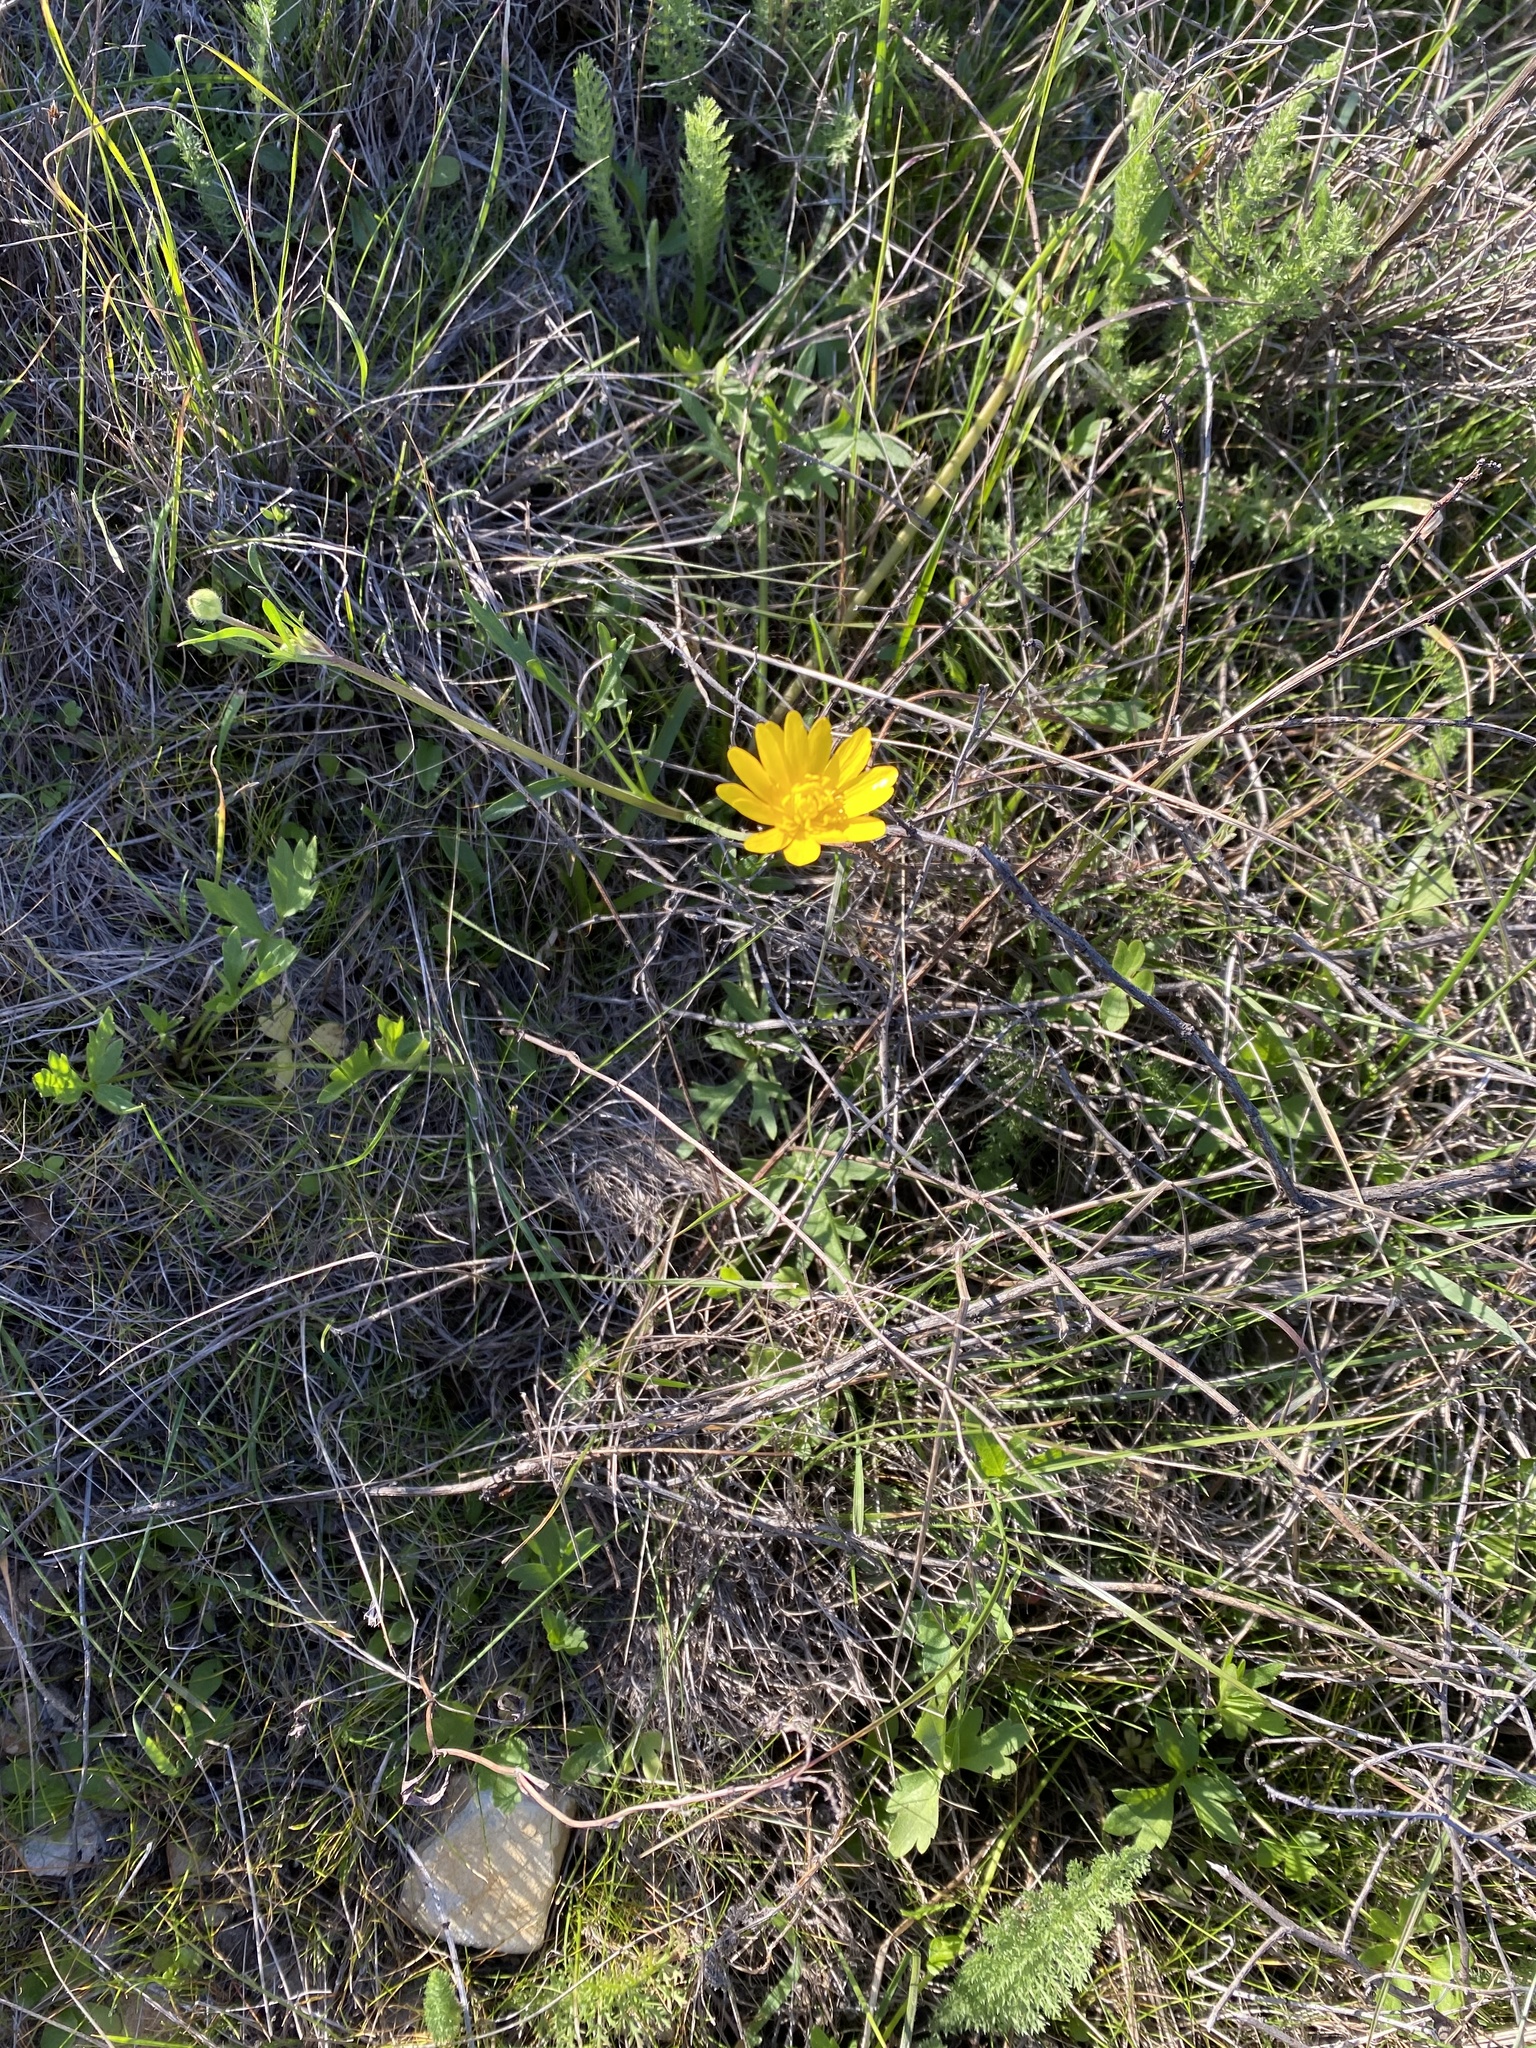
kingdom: Plantae
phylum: Tracheophyta
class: Magnoliopsida
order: Ranunculales
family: Ranunculaceae
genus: Ranunculus
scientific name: Ranunculus californicus
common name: California buttercup
